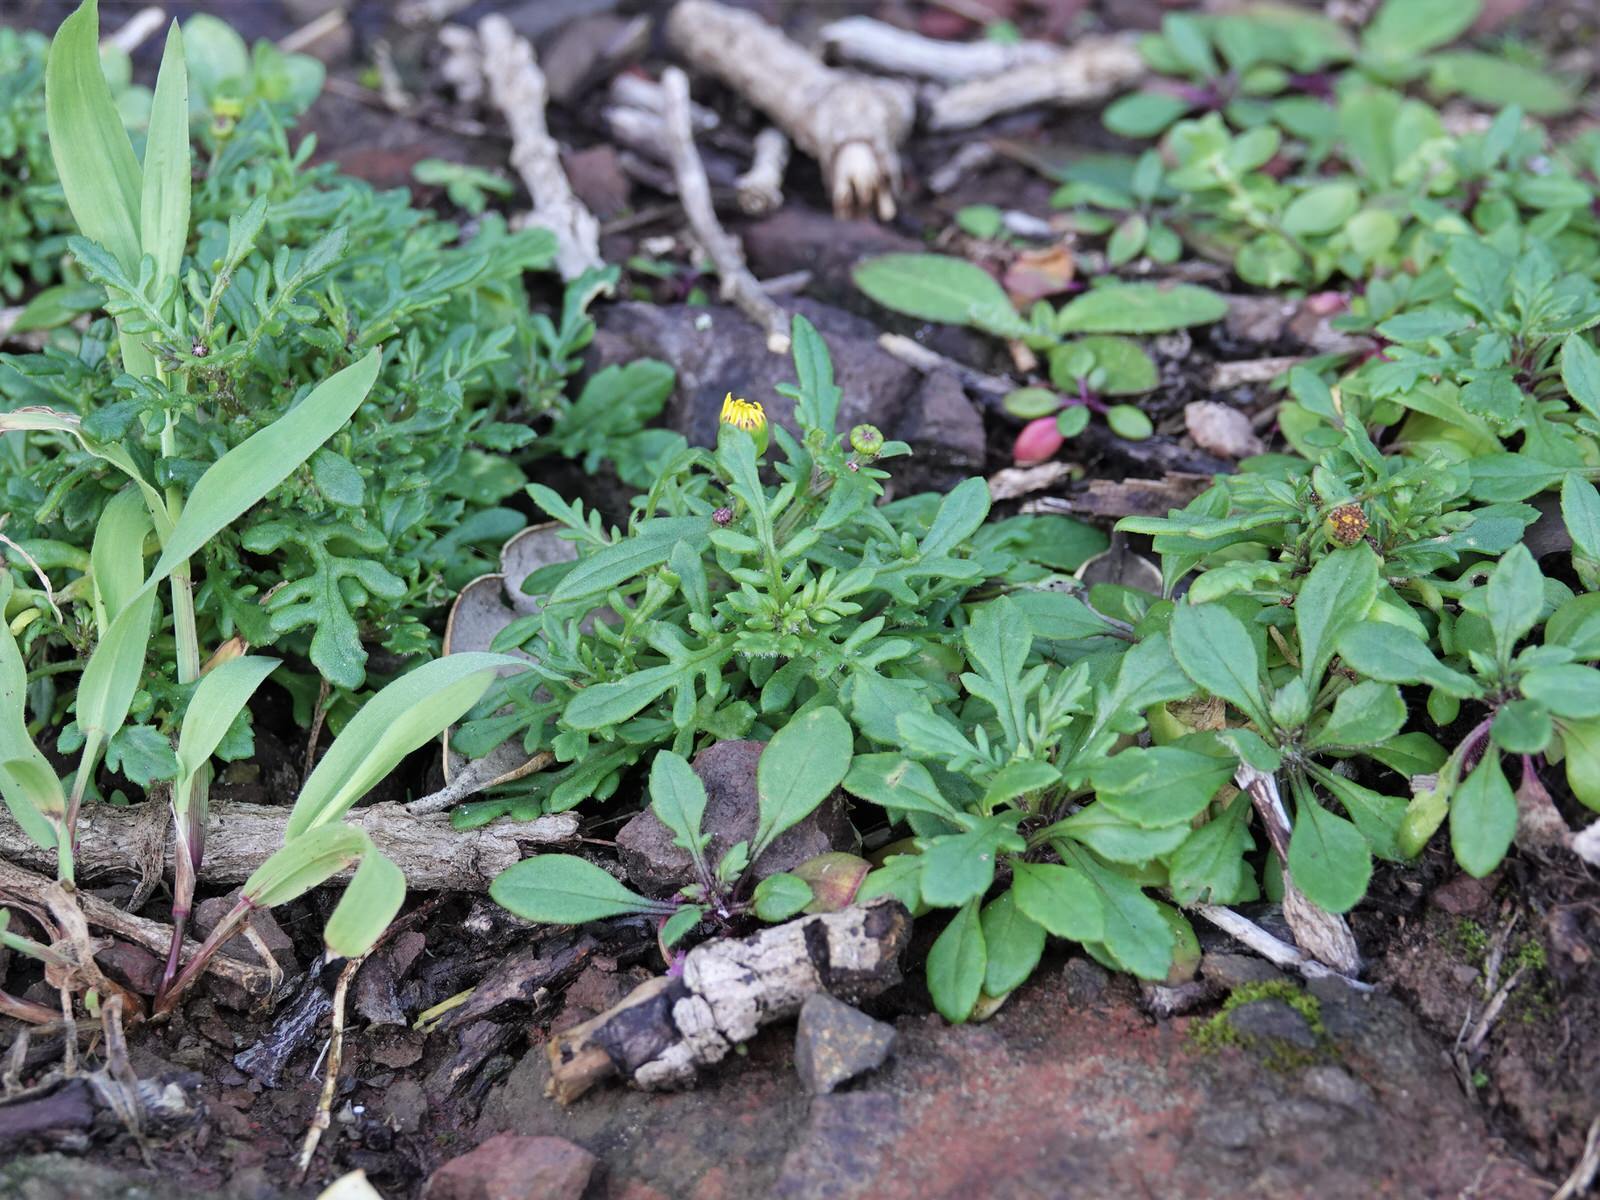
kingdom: Plantae
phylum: Tracheophyta
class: Magnoliopsida
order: Asterales
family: Asteraceae
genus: Senecio
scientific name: Senecio lautus
